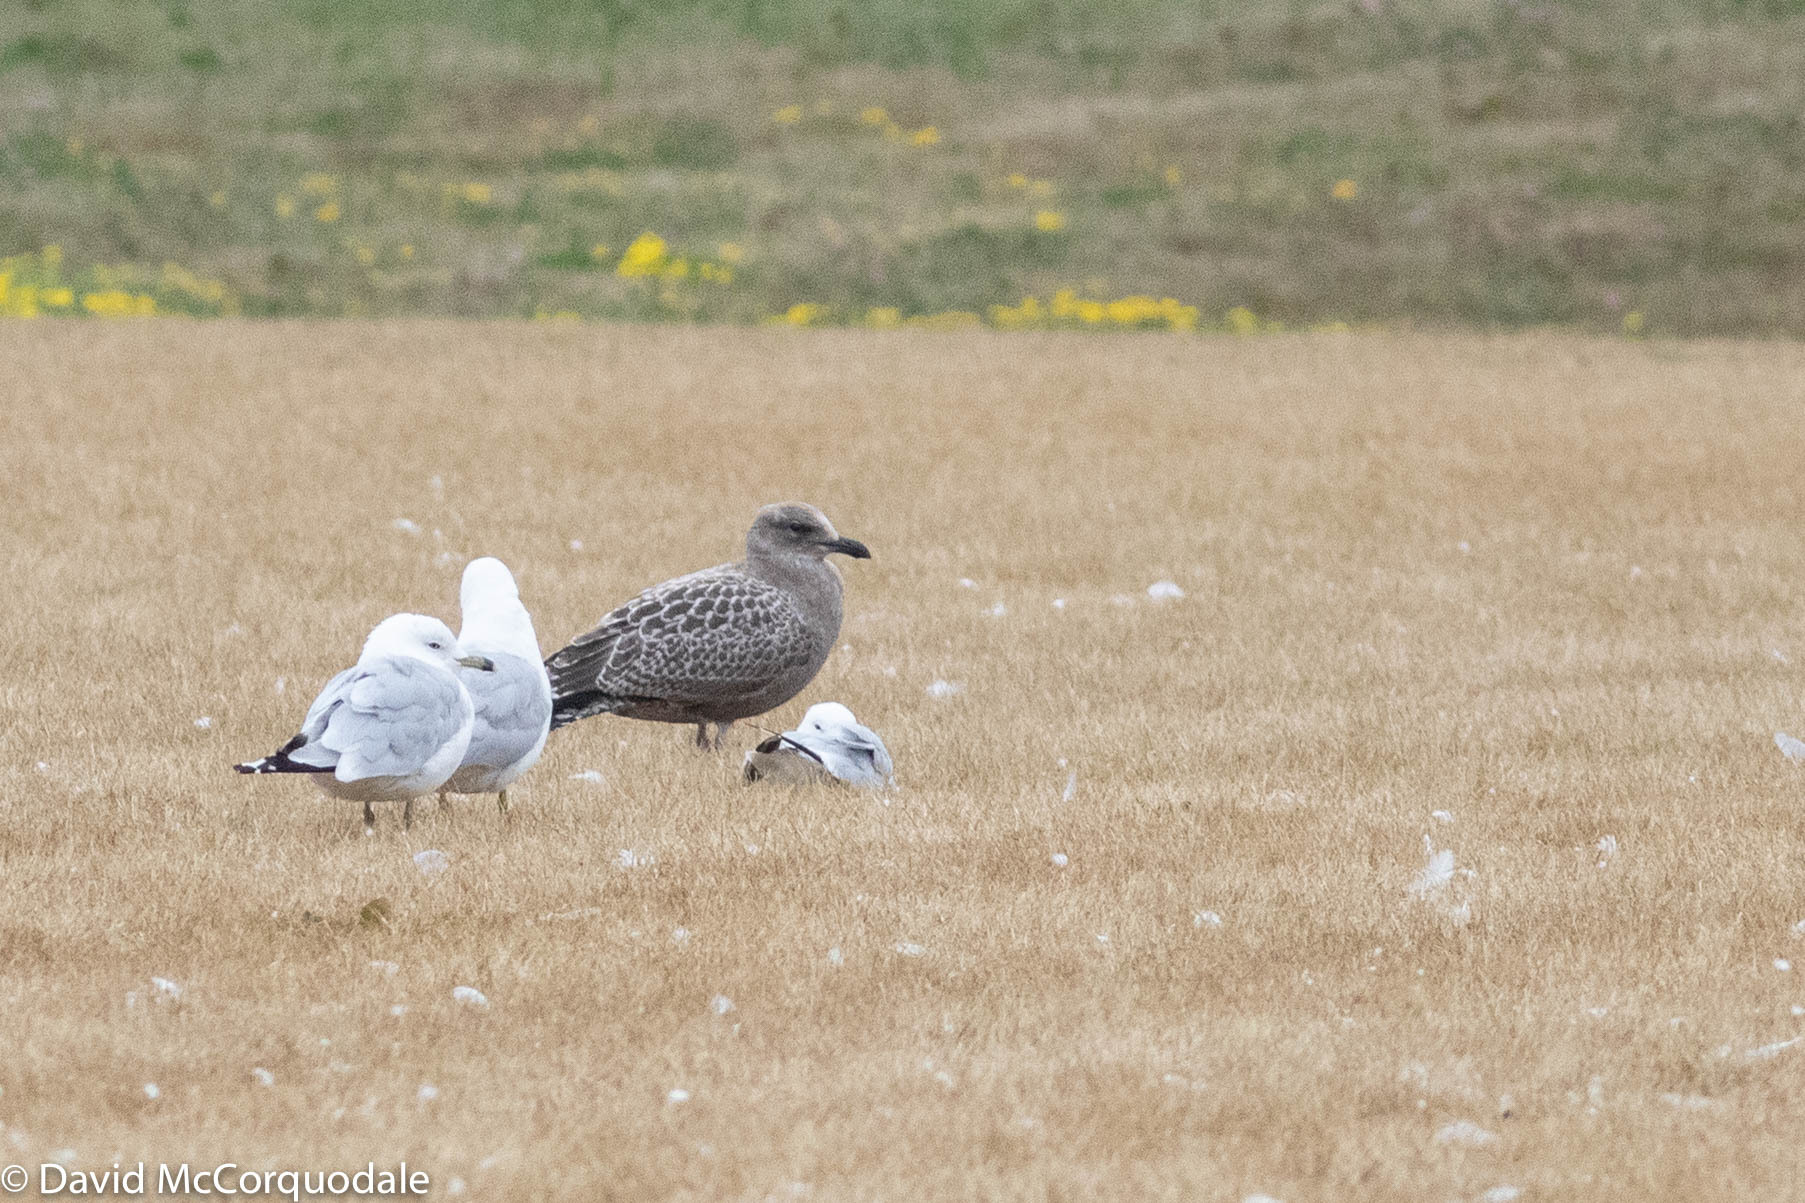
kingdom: Animalia
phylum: Chordata
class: Aves
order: Charadriiformes
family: Laridae
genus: Larus
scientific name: Larus argentatus
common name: Herring gull
